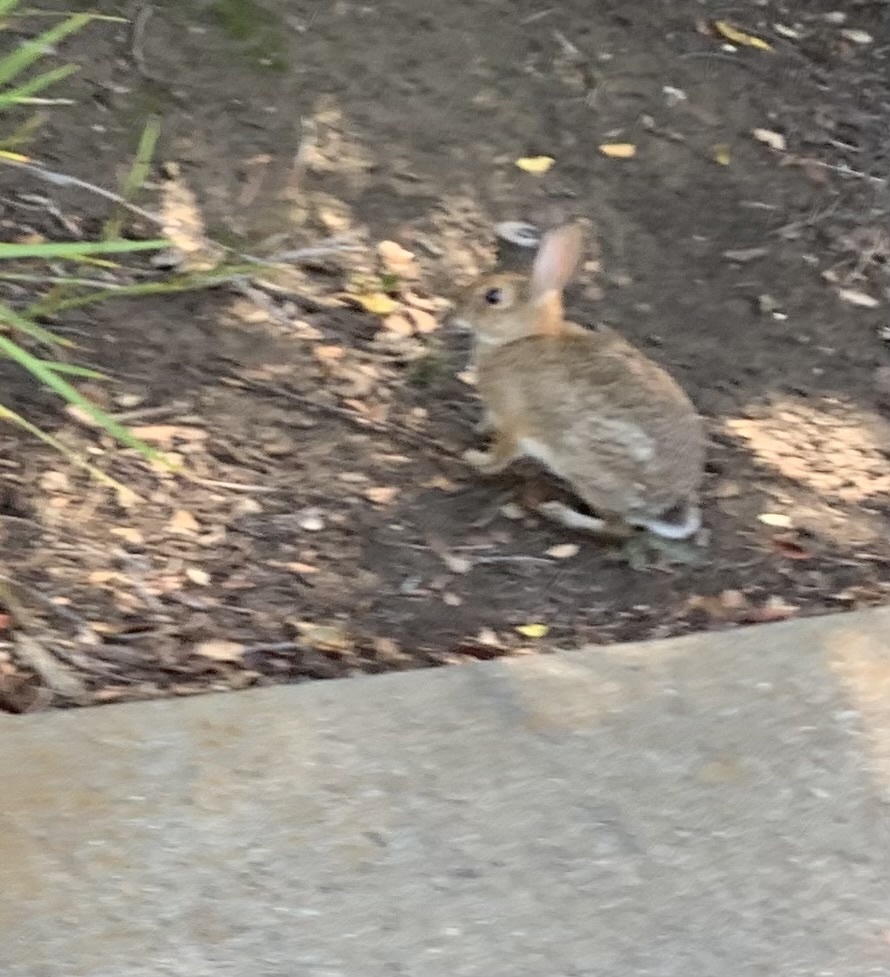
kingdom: Animalia
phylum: Chordata
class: Mammalia
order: Lagomorpha
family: Leporidae
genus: Sylvilagus
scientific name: Sylvilagus audubonii
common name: Desert cottontail
